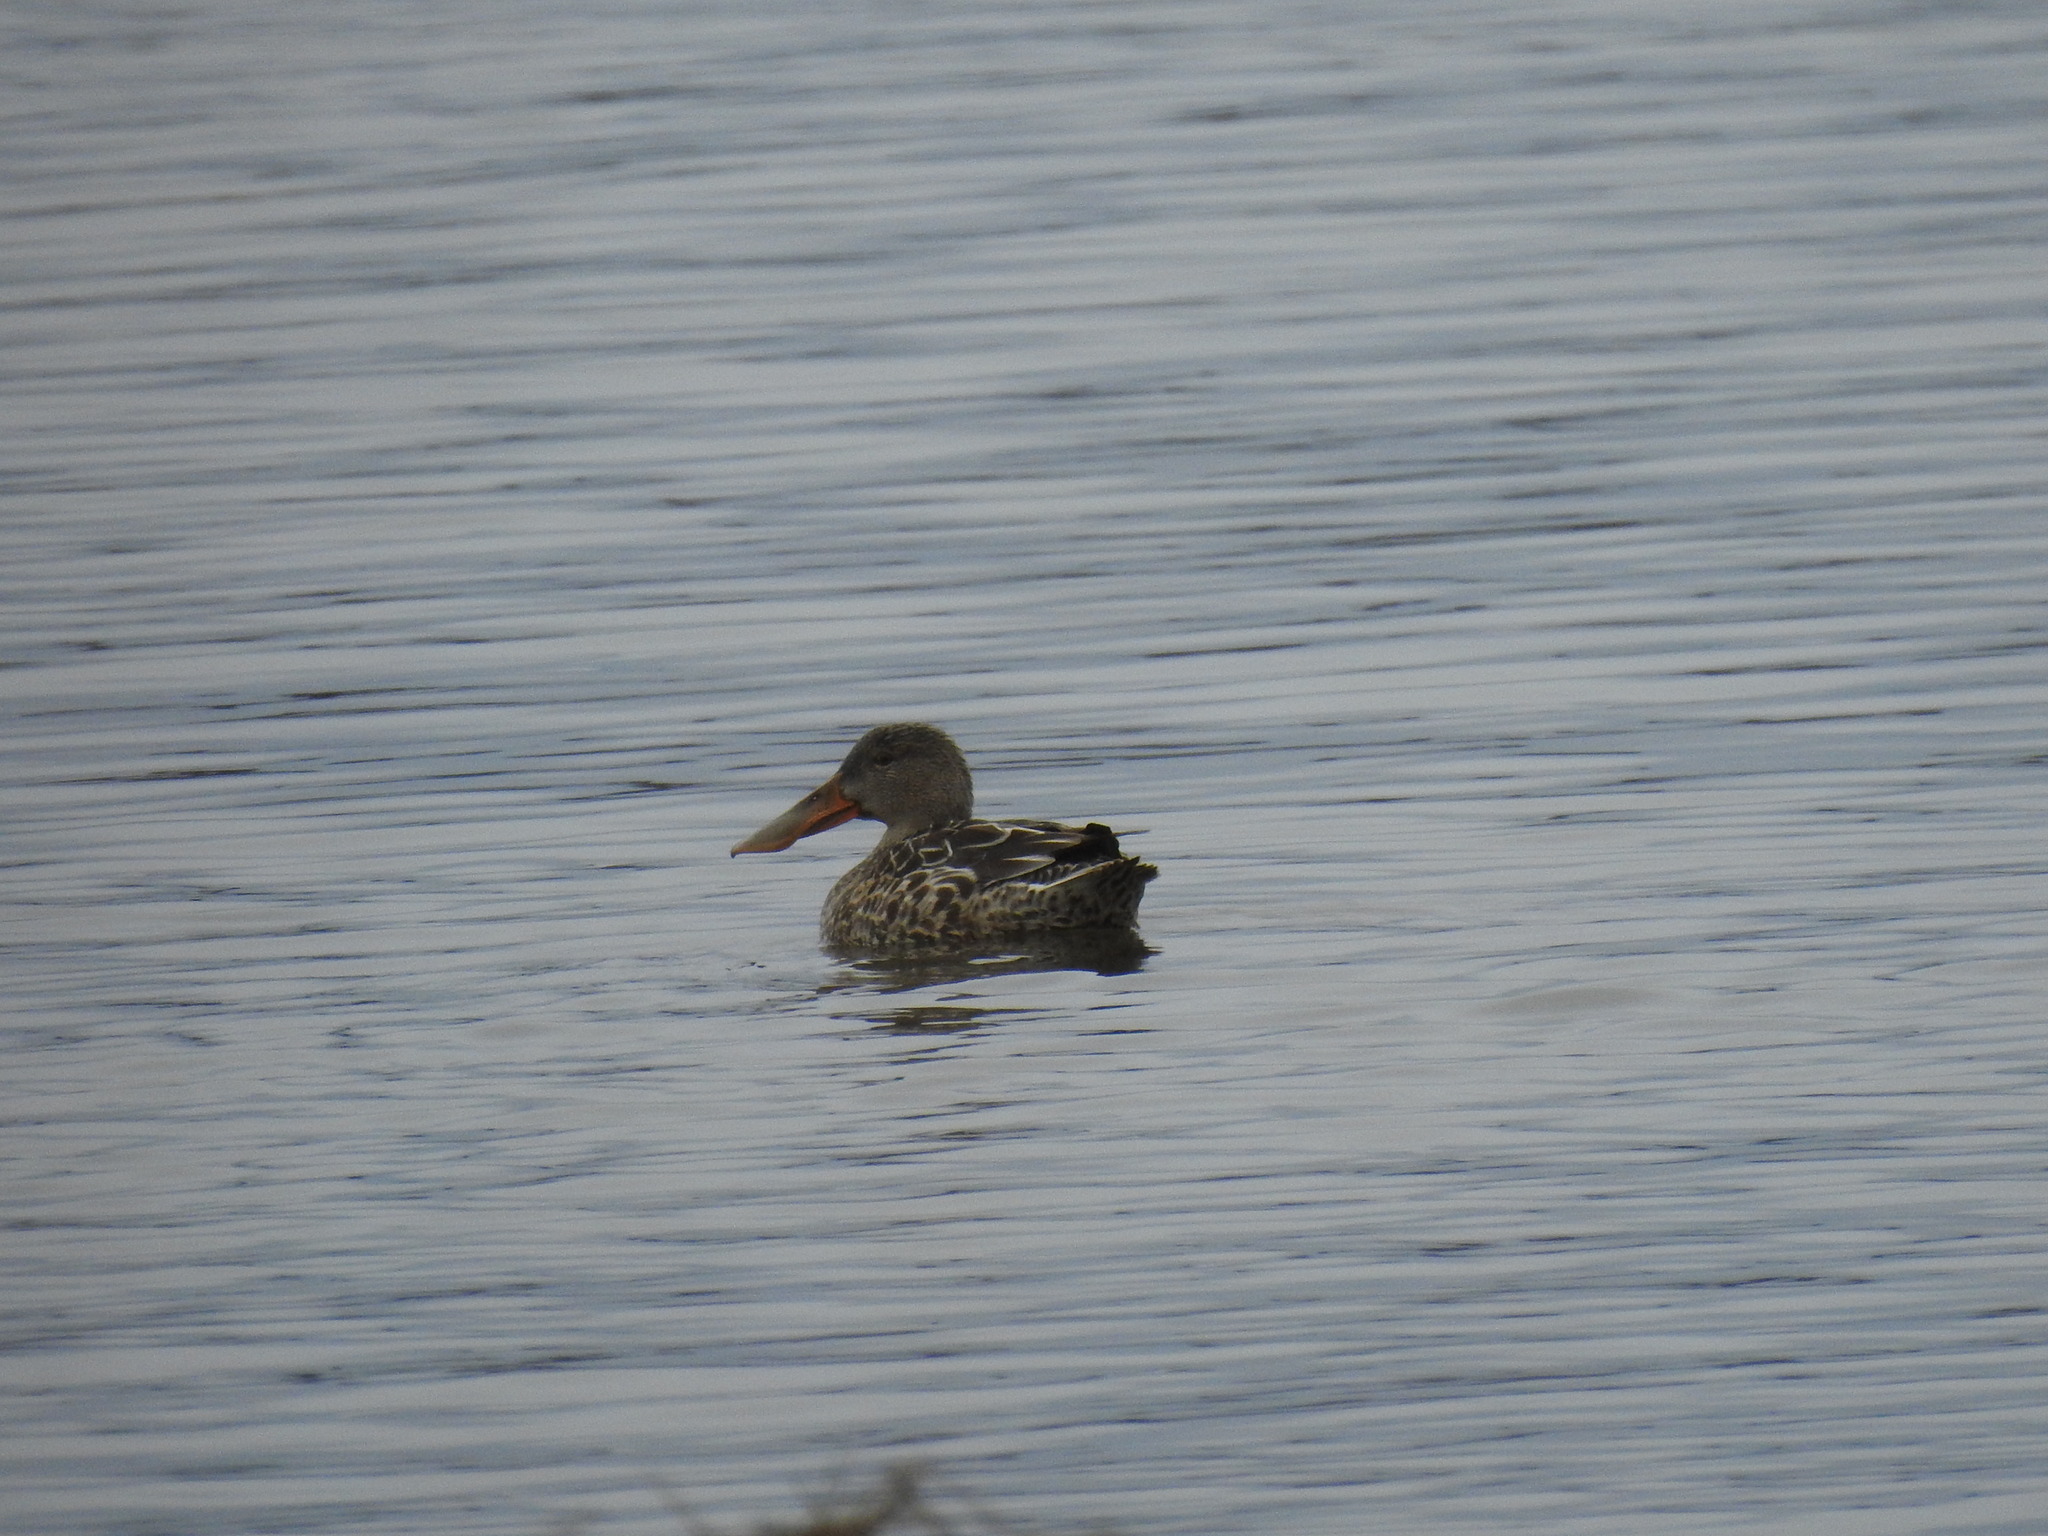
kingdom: Animalia
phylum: Chordata
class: Aves
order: Anseriformes
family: Anatidae
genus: Spatula
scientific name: Spatula clypeata
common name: Northern shoveler
